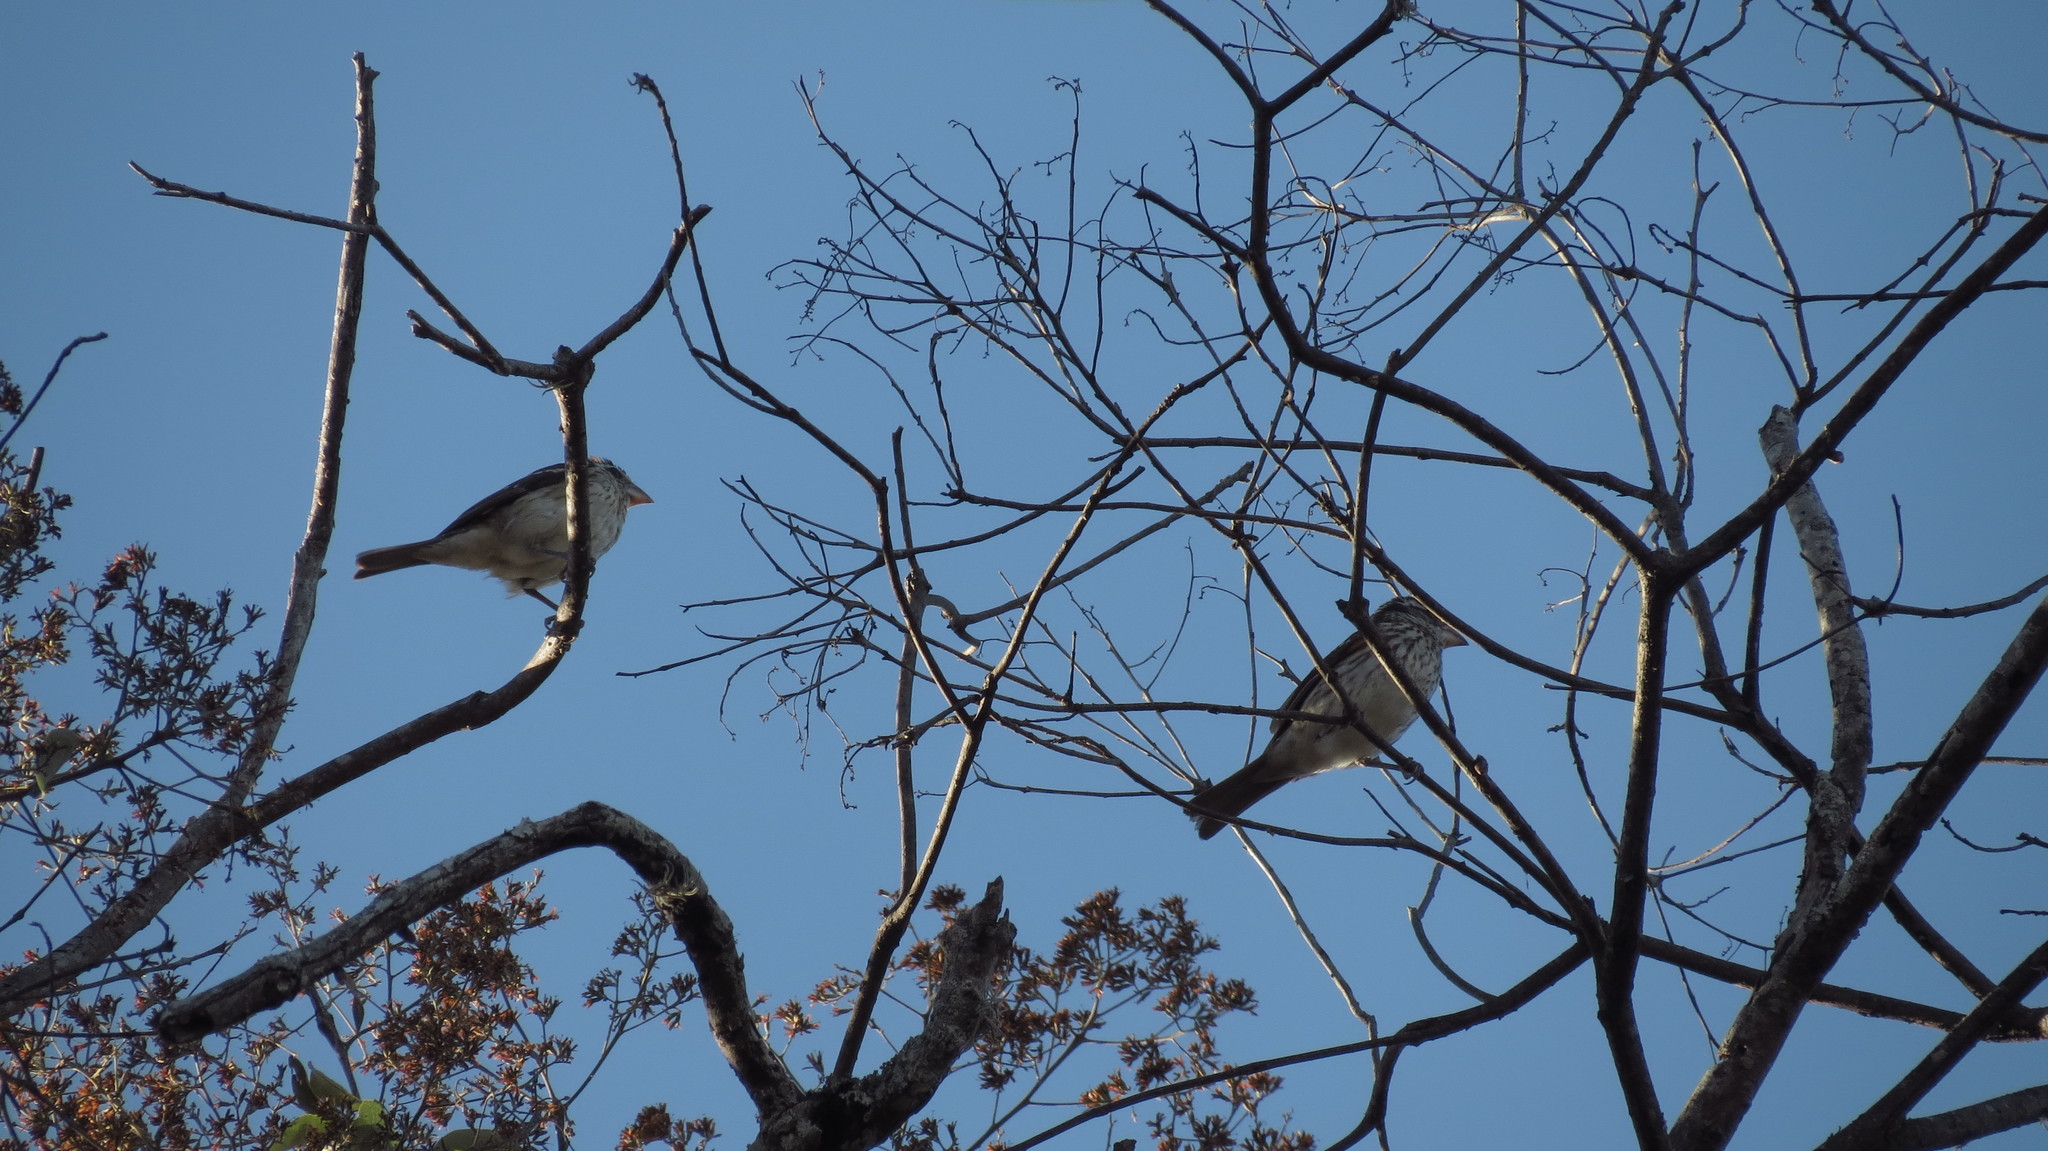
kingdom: Animalia
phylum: Chordata
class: Aves
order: Passeriformes
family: Cardinalidae
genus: Pheucticus
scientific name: Pheucticus ludovicianus
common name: Rose-breasted grosbeak
